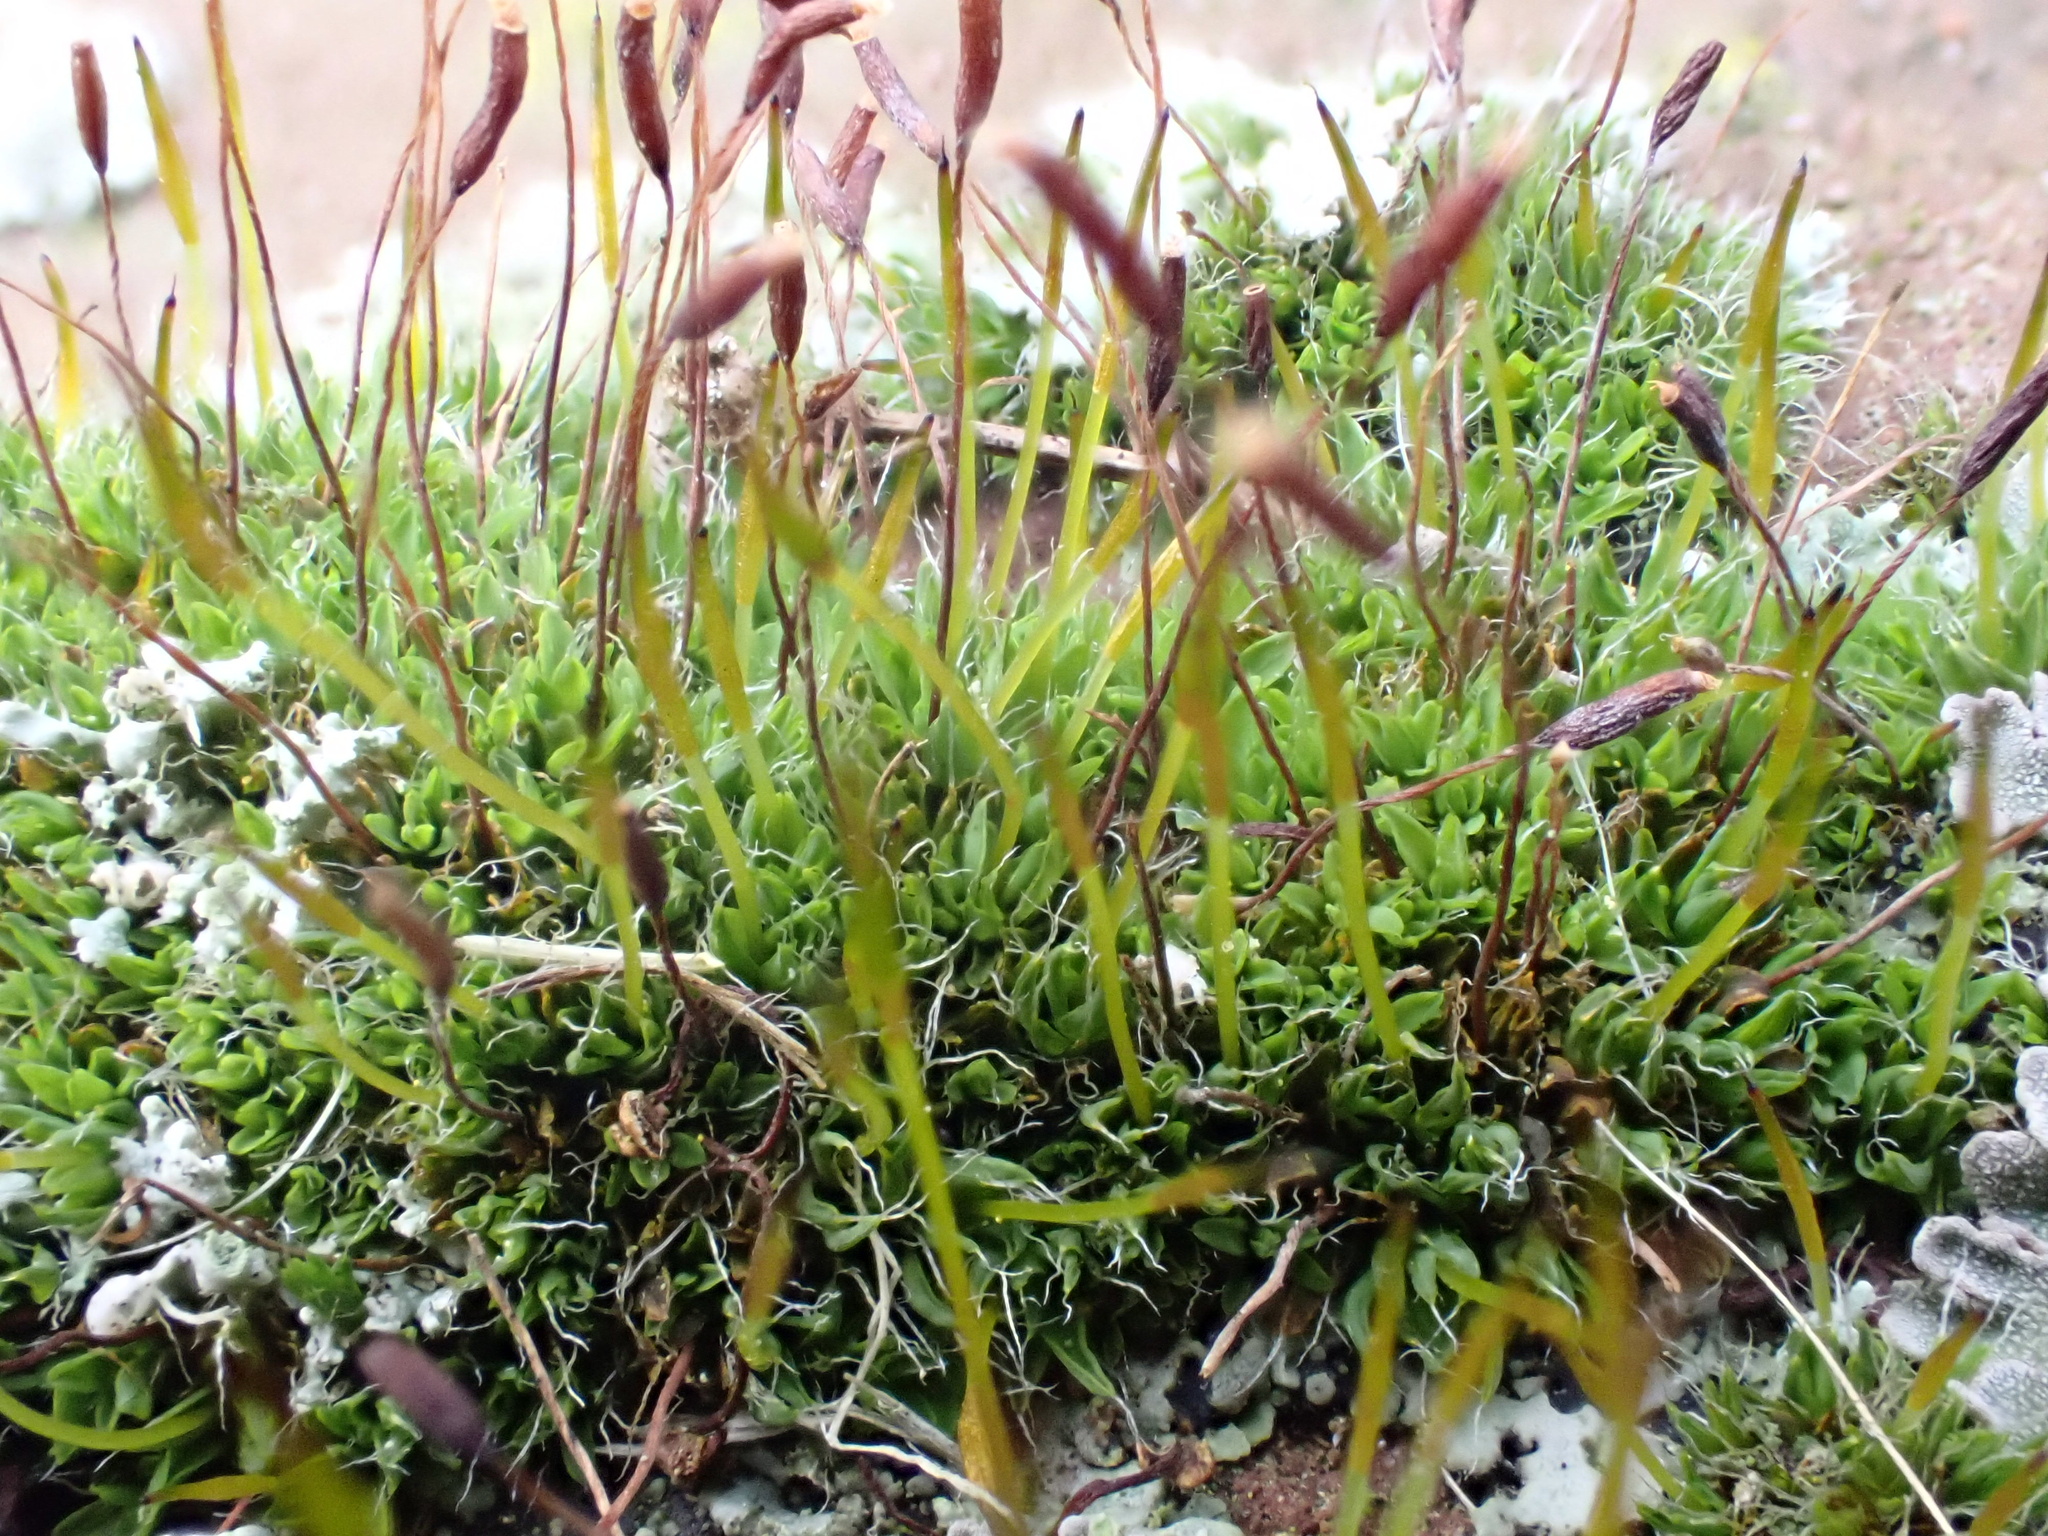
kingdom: Plantae
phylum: Bryophyta
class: Bryopsida
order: Pottiales
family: Pottiaceae
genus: Tortula
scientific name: Tortula muralis
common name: Wall screw-moss
